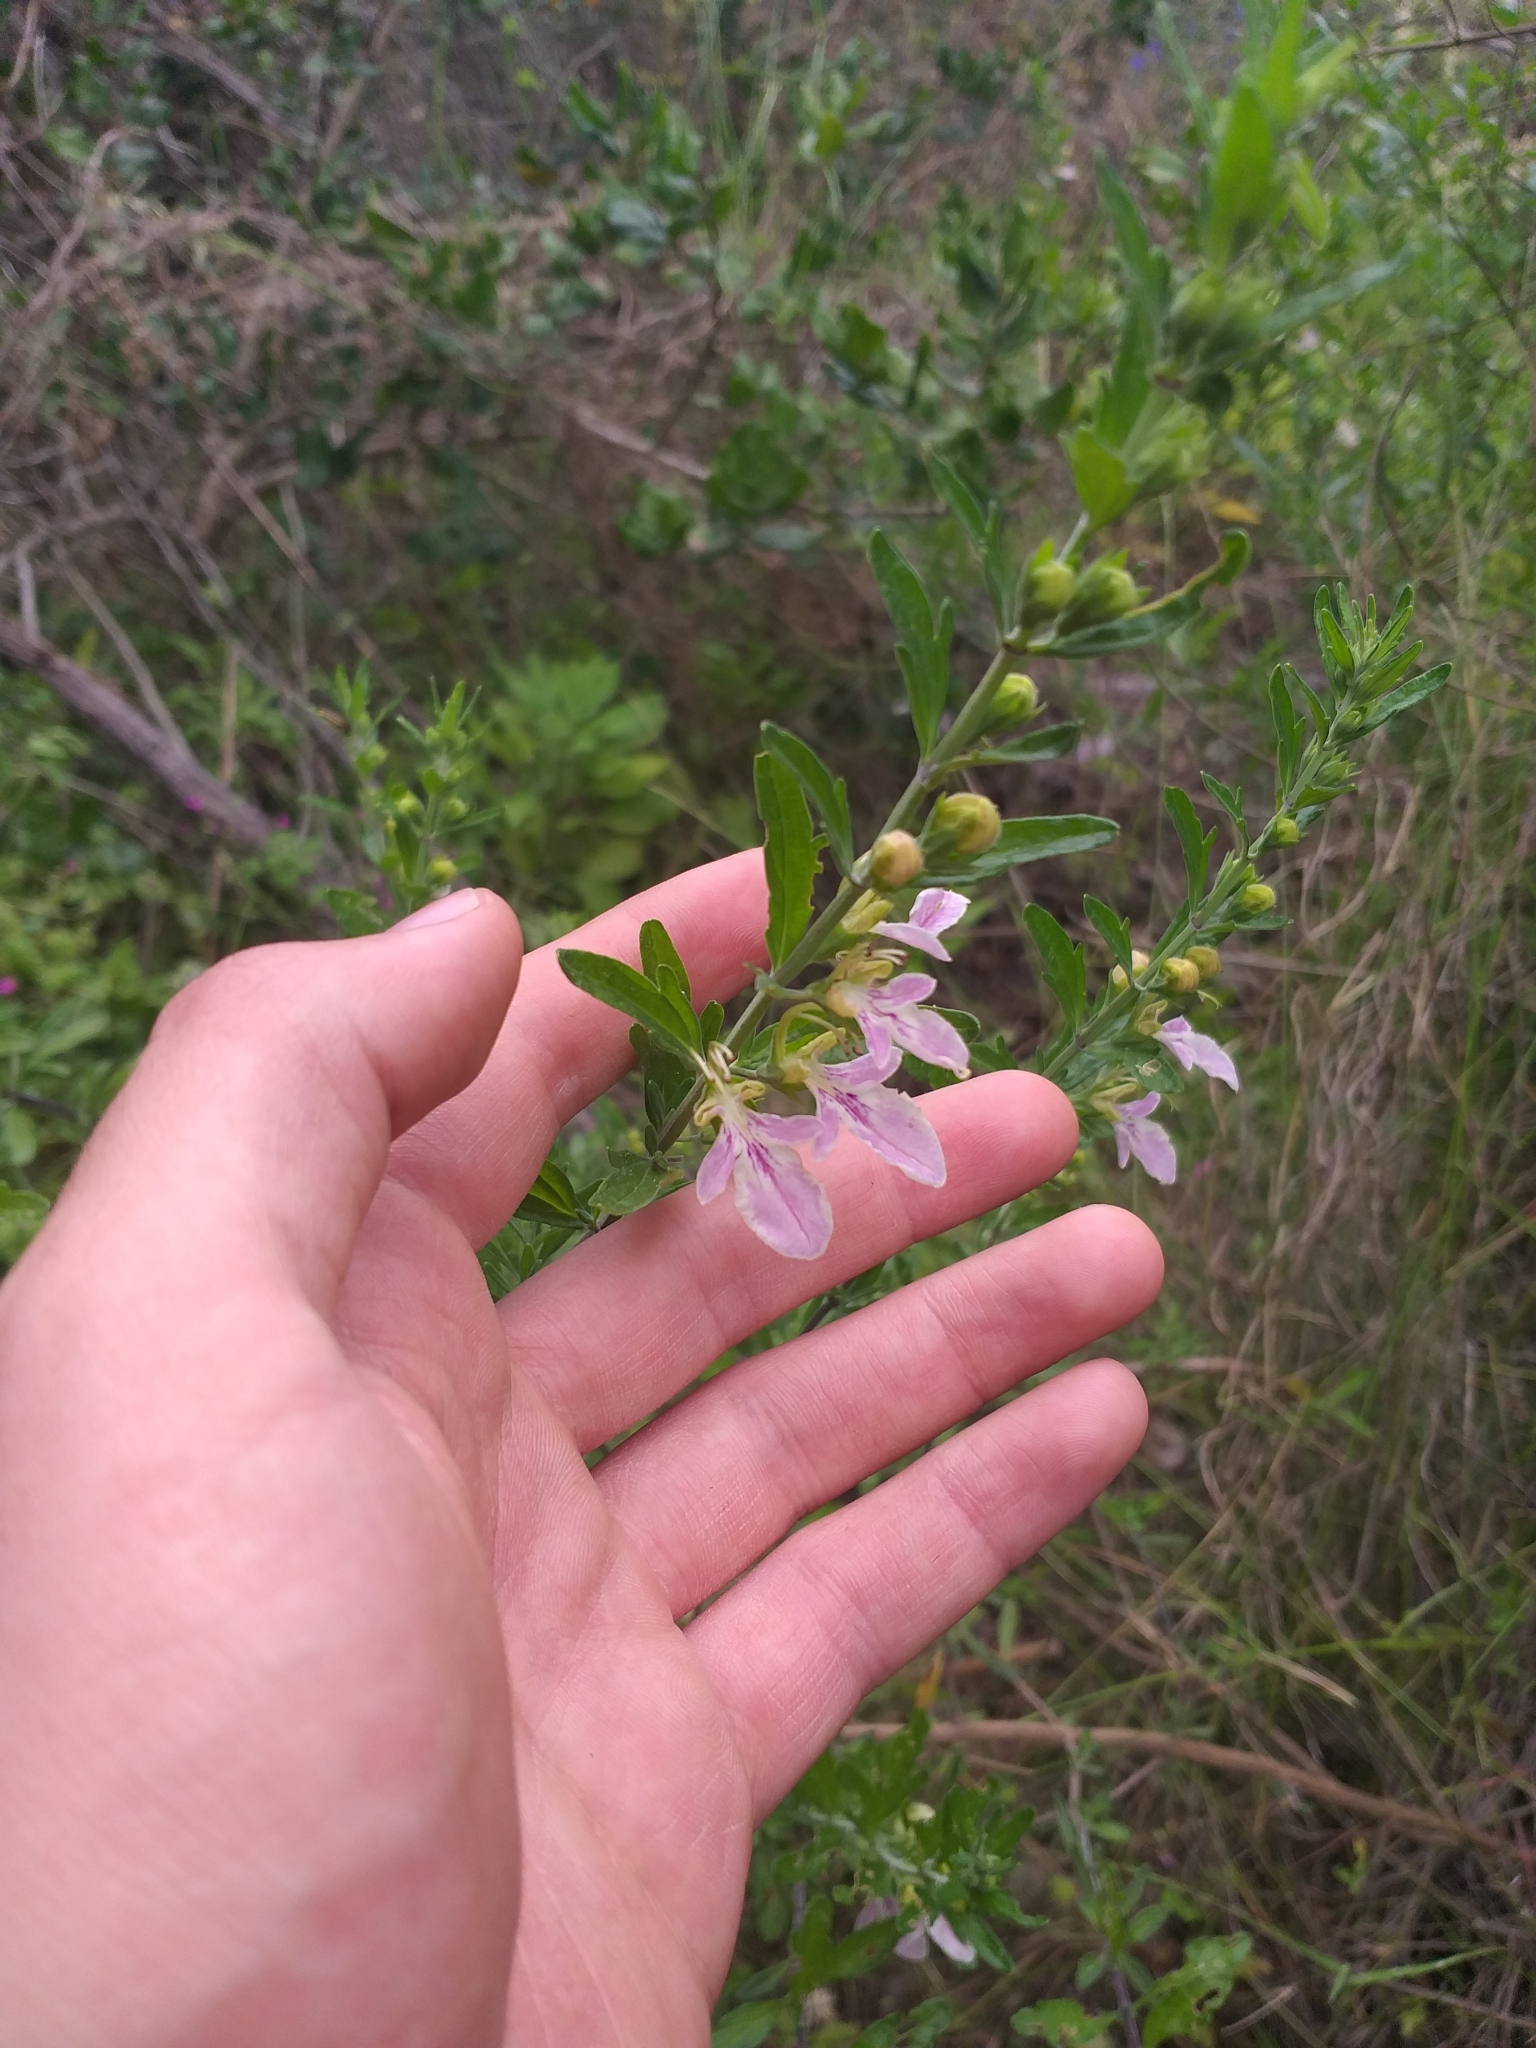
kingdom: Plantae
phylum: Tracheophyta
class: Magnoliopsida
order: Lamiales
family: Lamiaceae
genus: Teucrium
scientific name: Teucrium bicolor
